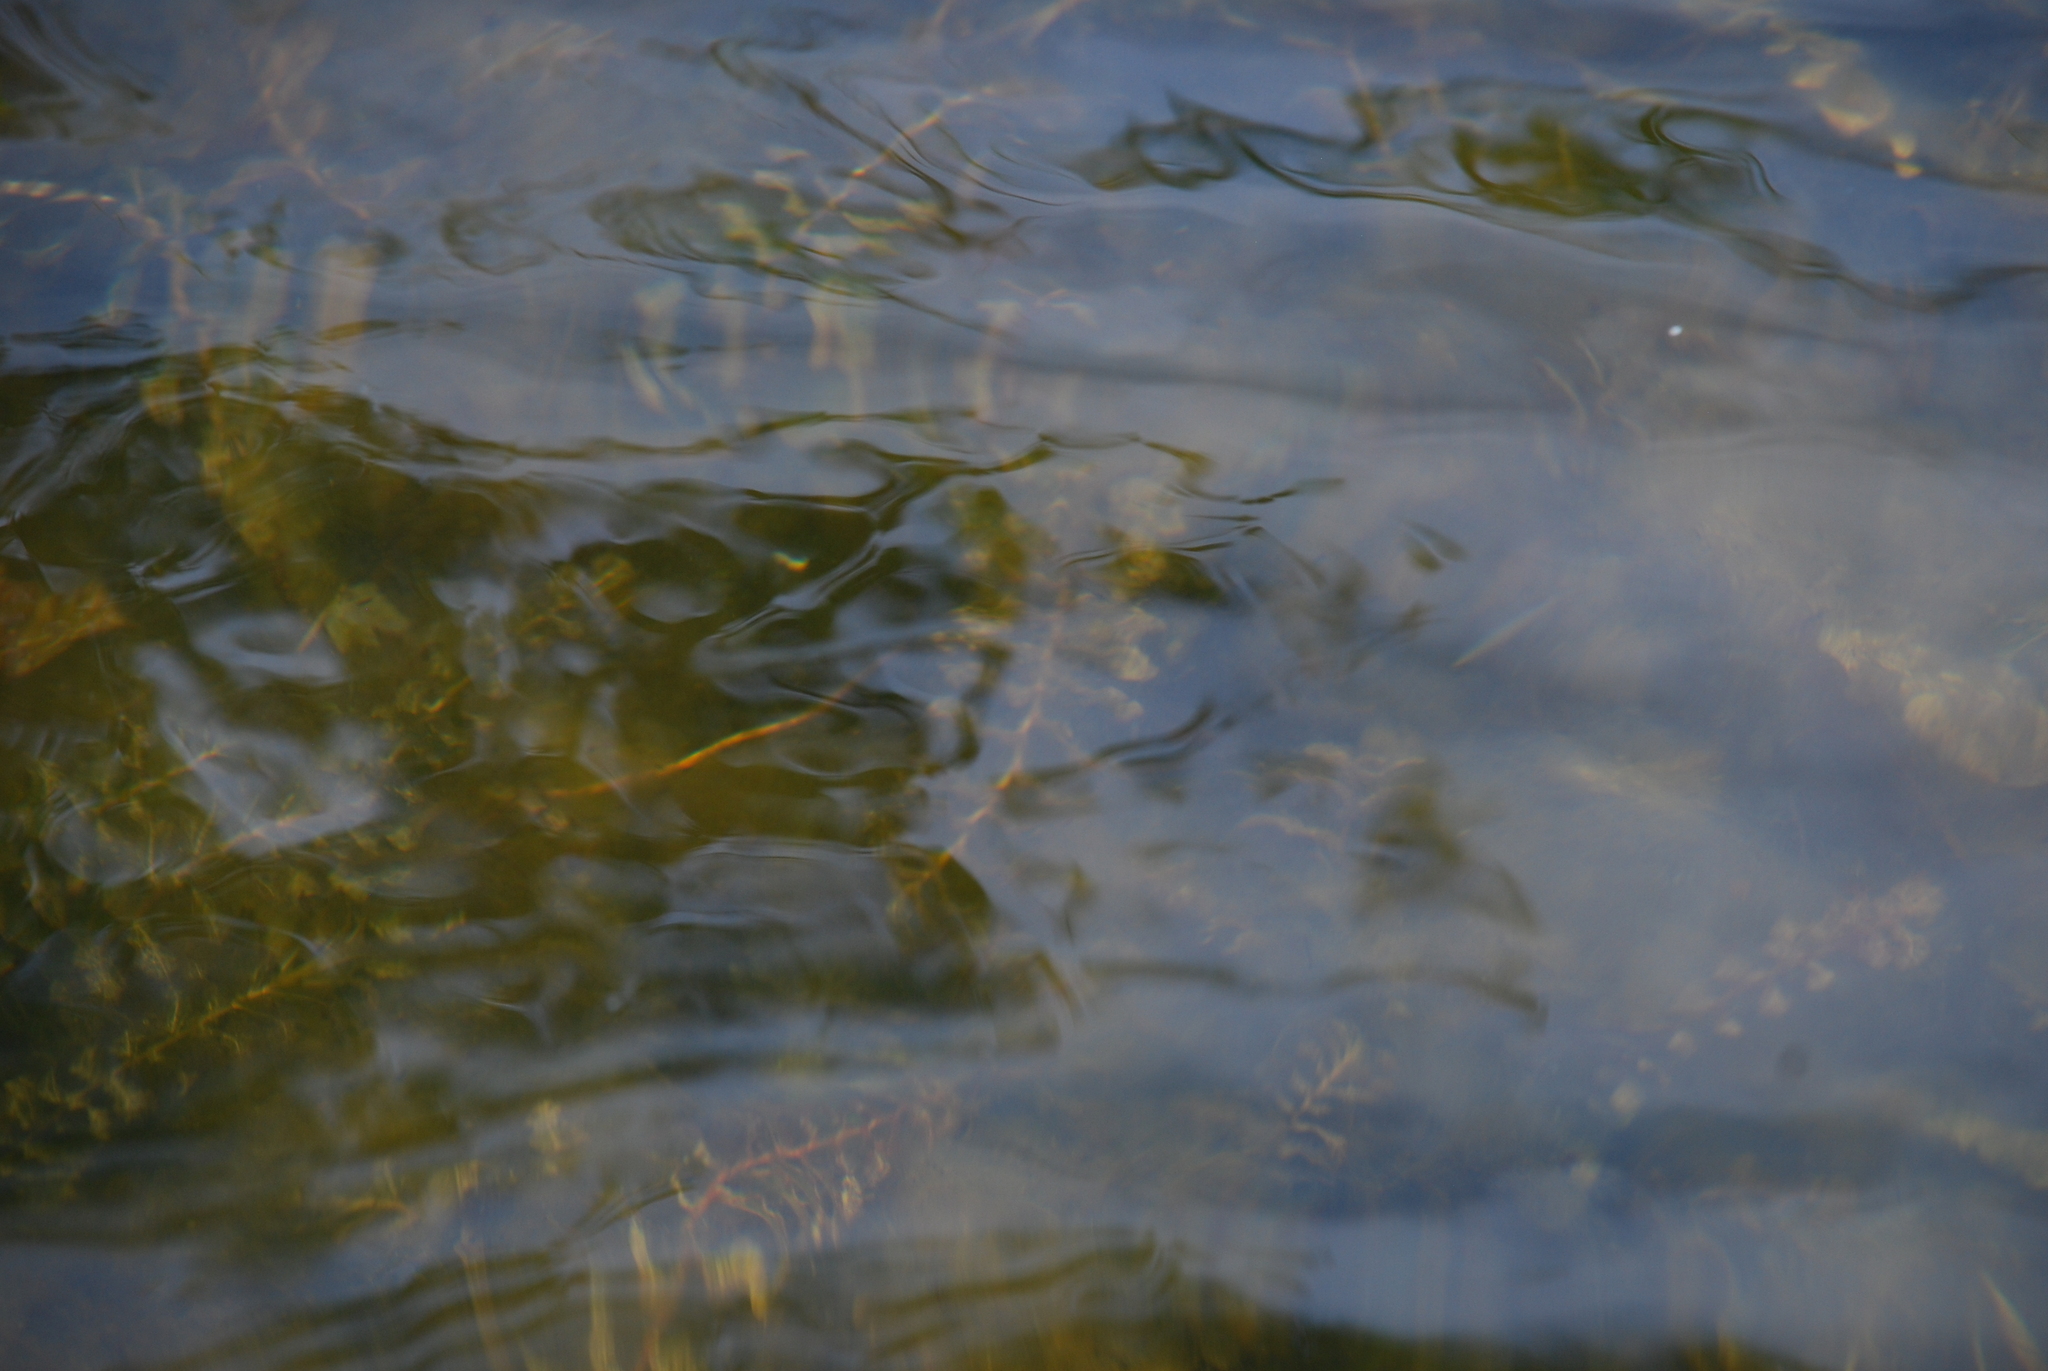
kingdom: Plantae
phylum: Tracheophyta
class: Liliopsida
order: Alismatales
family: Potamogetonaceae
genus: Potamogeton
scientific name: Potamogeton perfoliatus
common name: Perfoliate pondweed
